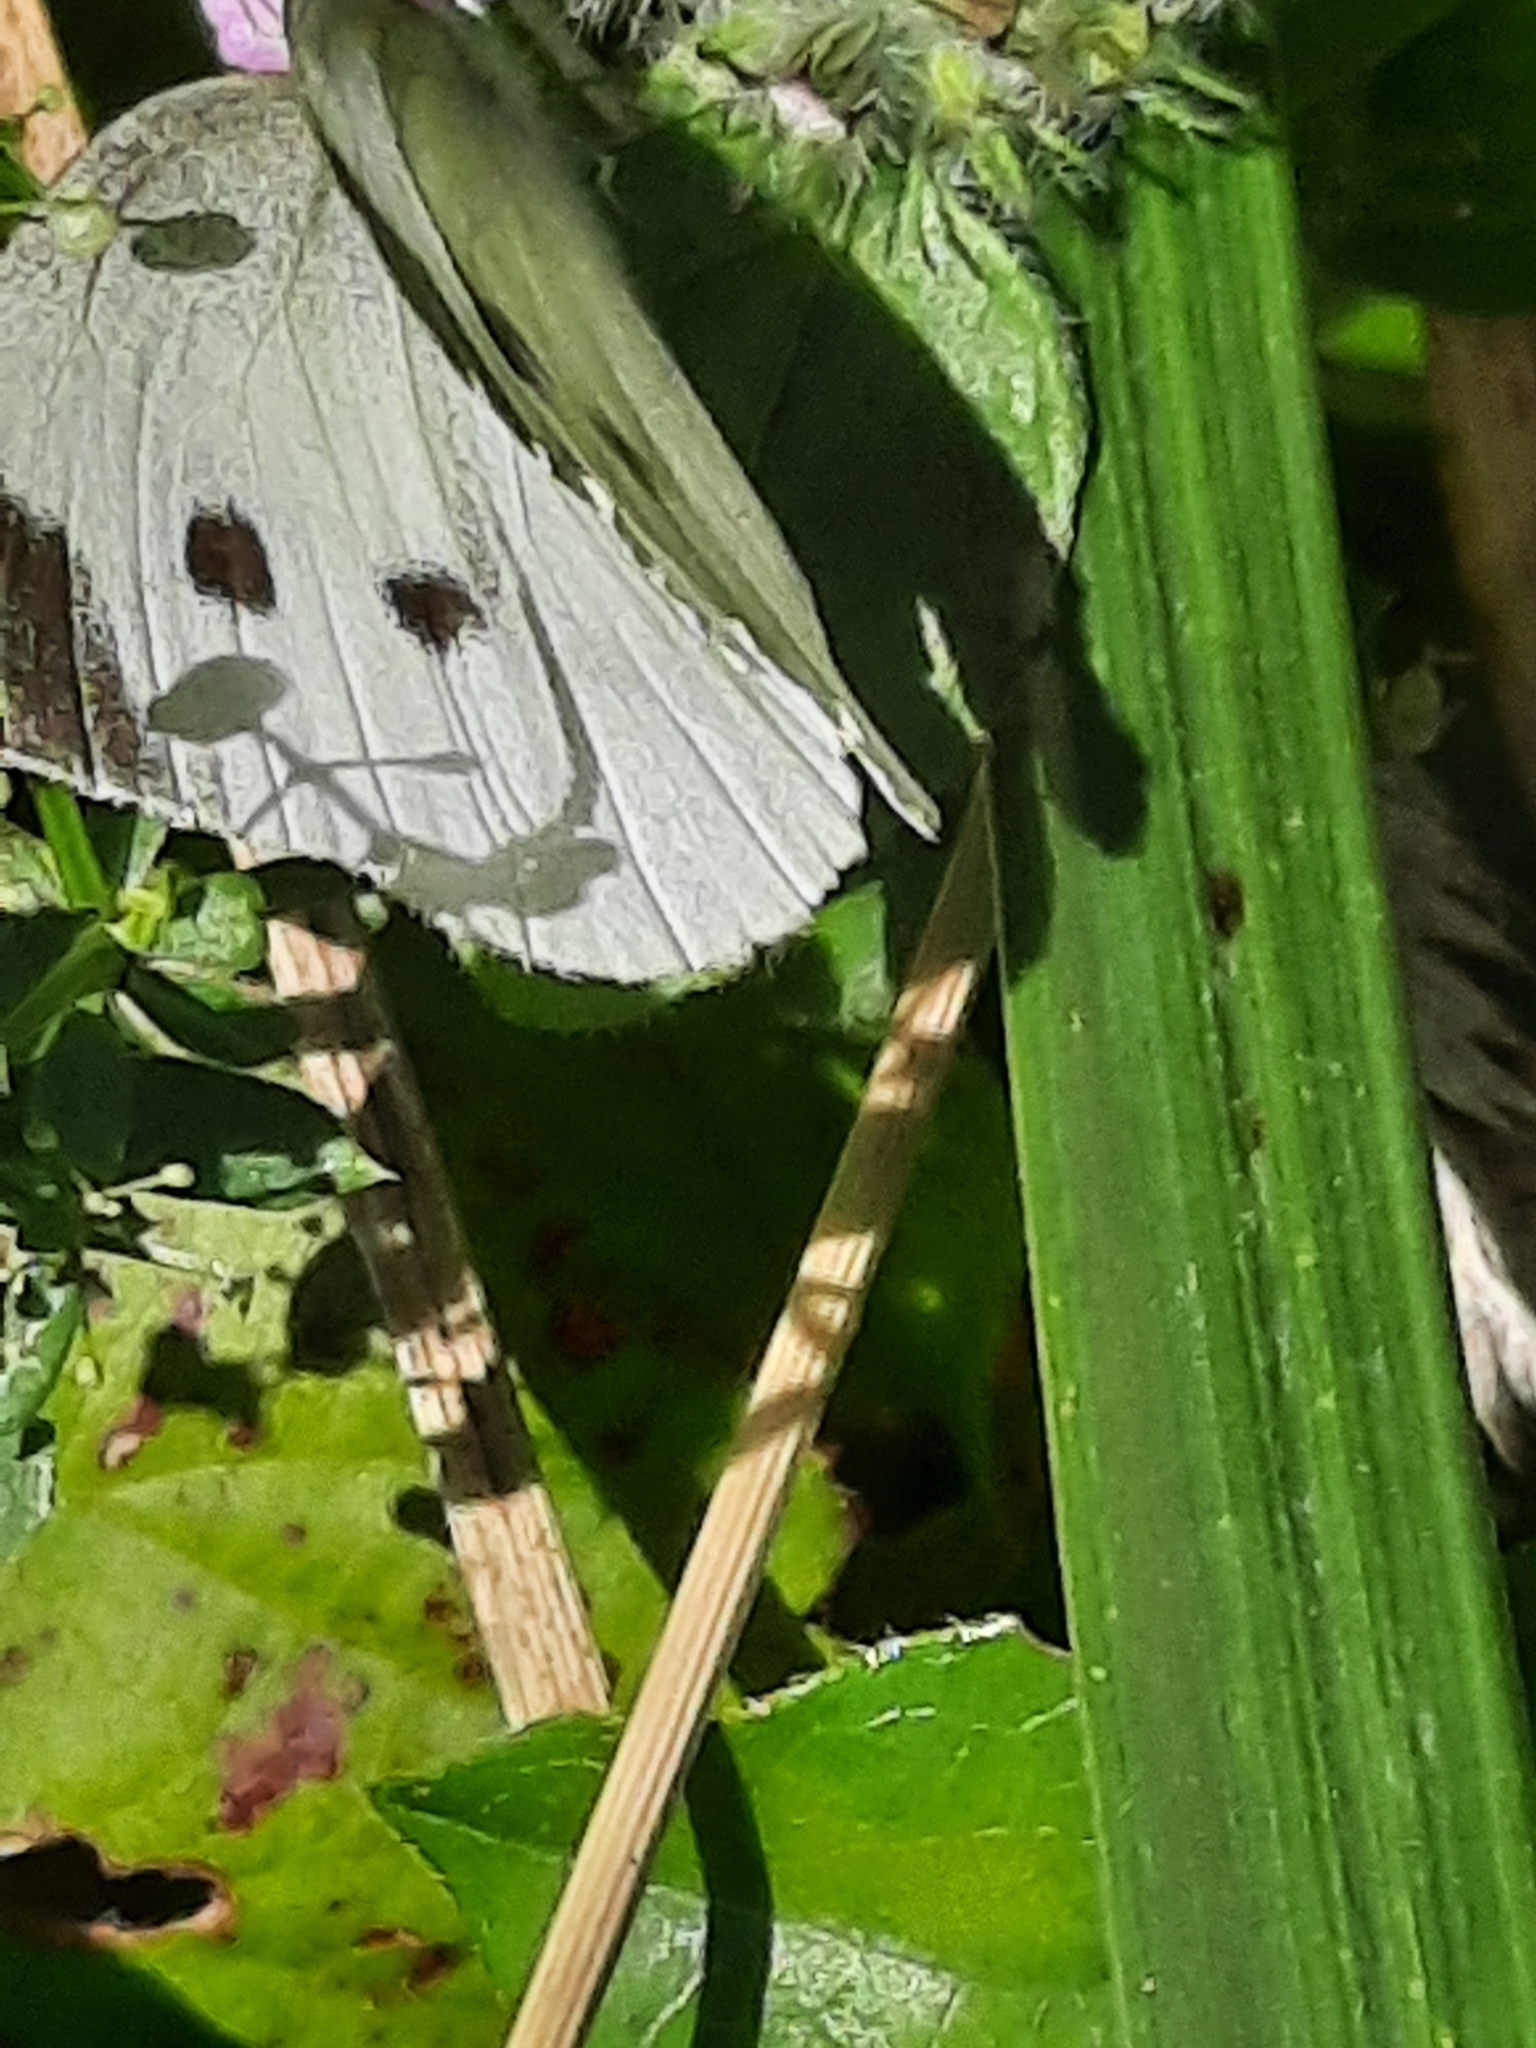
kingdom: Animalia
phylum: Arthropoda
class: Insecta
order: Lepidoptera
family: Pieridae
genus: Pieris
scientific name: Pieris rapae
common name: Small white
